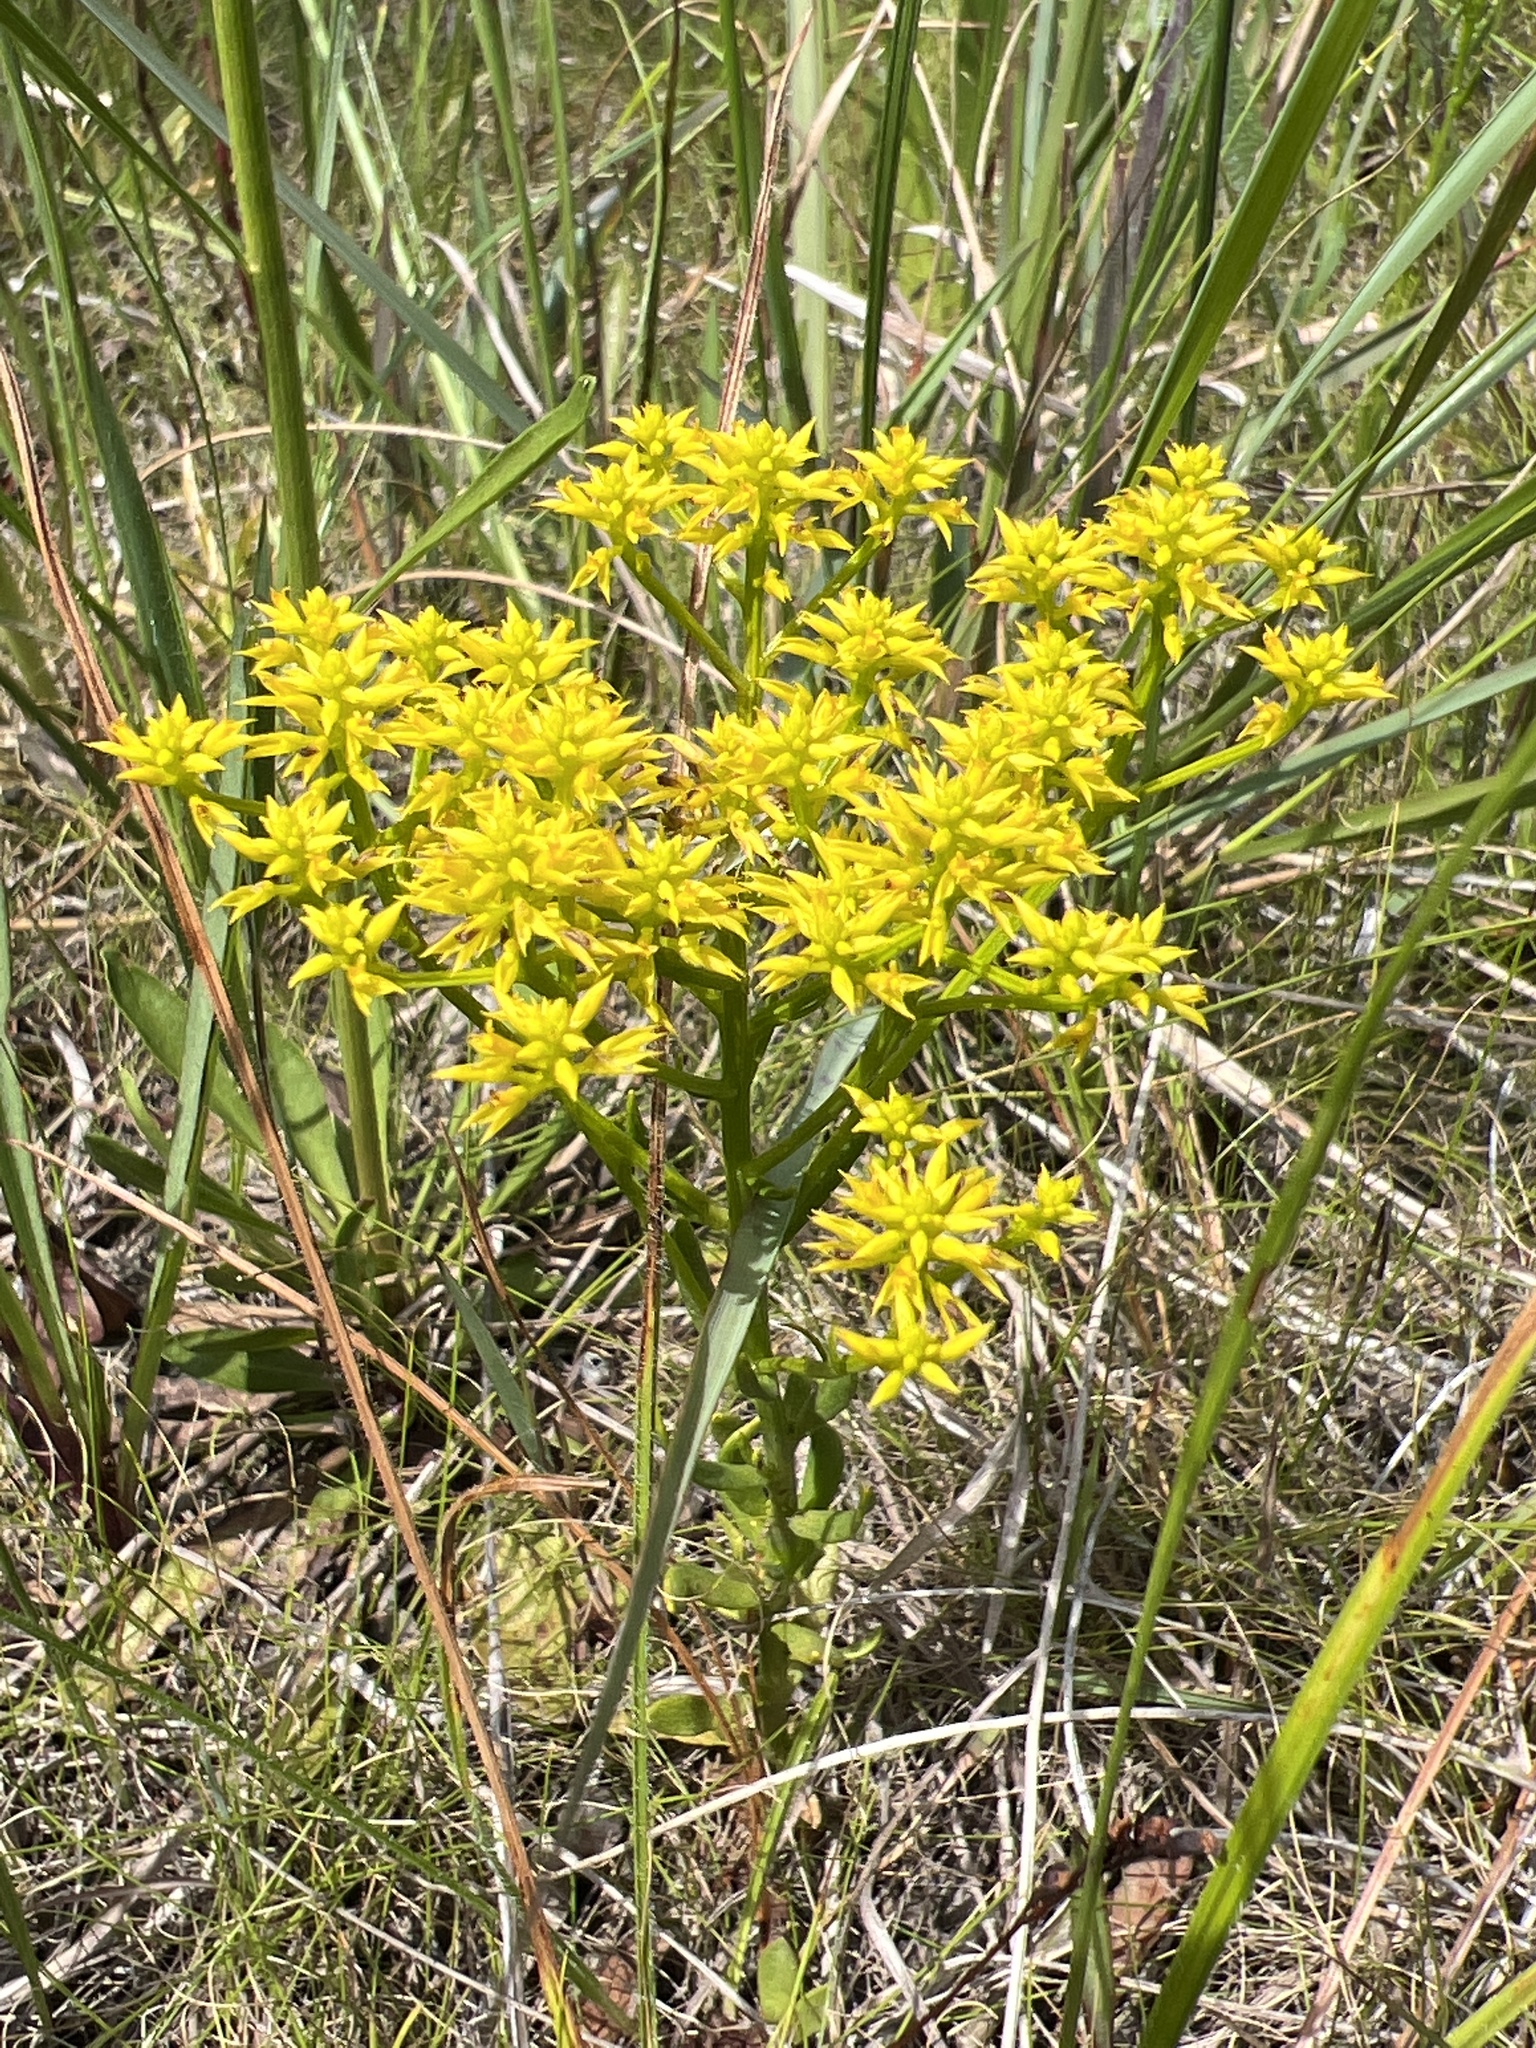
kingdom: Plantae
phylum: Tracheophyta
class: Magnoliopsida
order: Fabales
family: Polygalaceae
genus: Polygala
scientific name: Polygala ramosa
